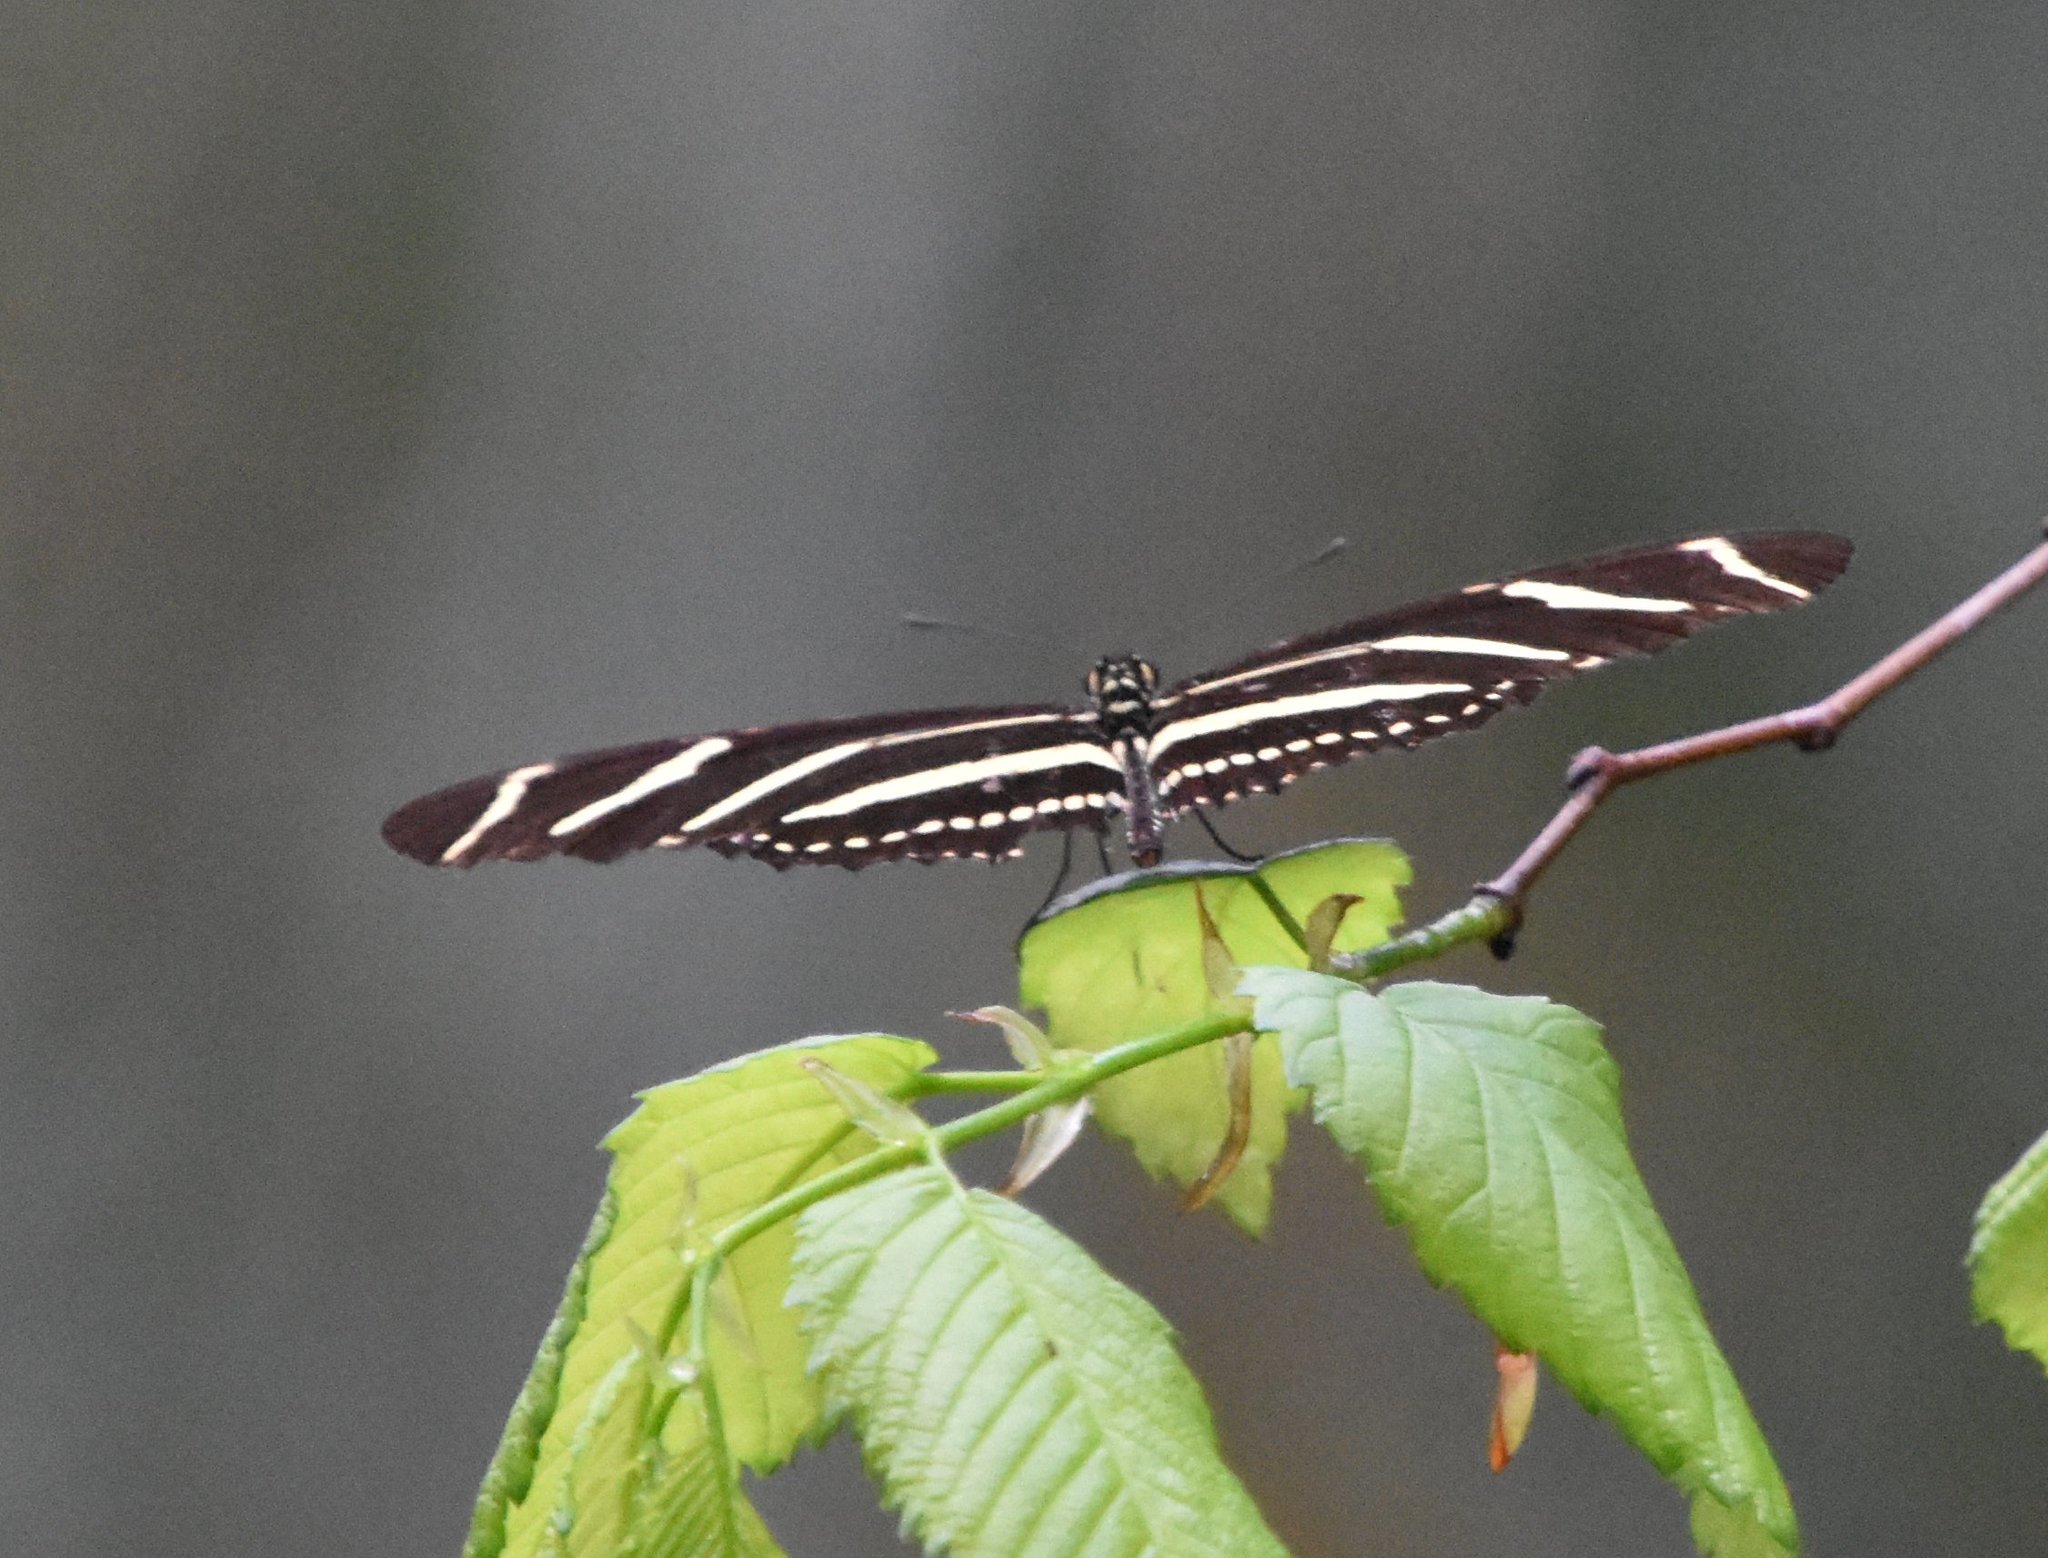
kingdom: Animalia
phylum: Arthropoda
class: Insecta
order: Lepidoptera
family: Nymphalidae
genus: Heliconius
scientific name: Heliconius charithonia
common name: Zebra long wing
